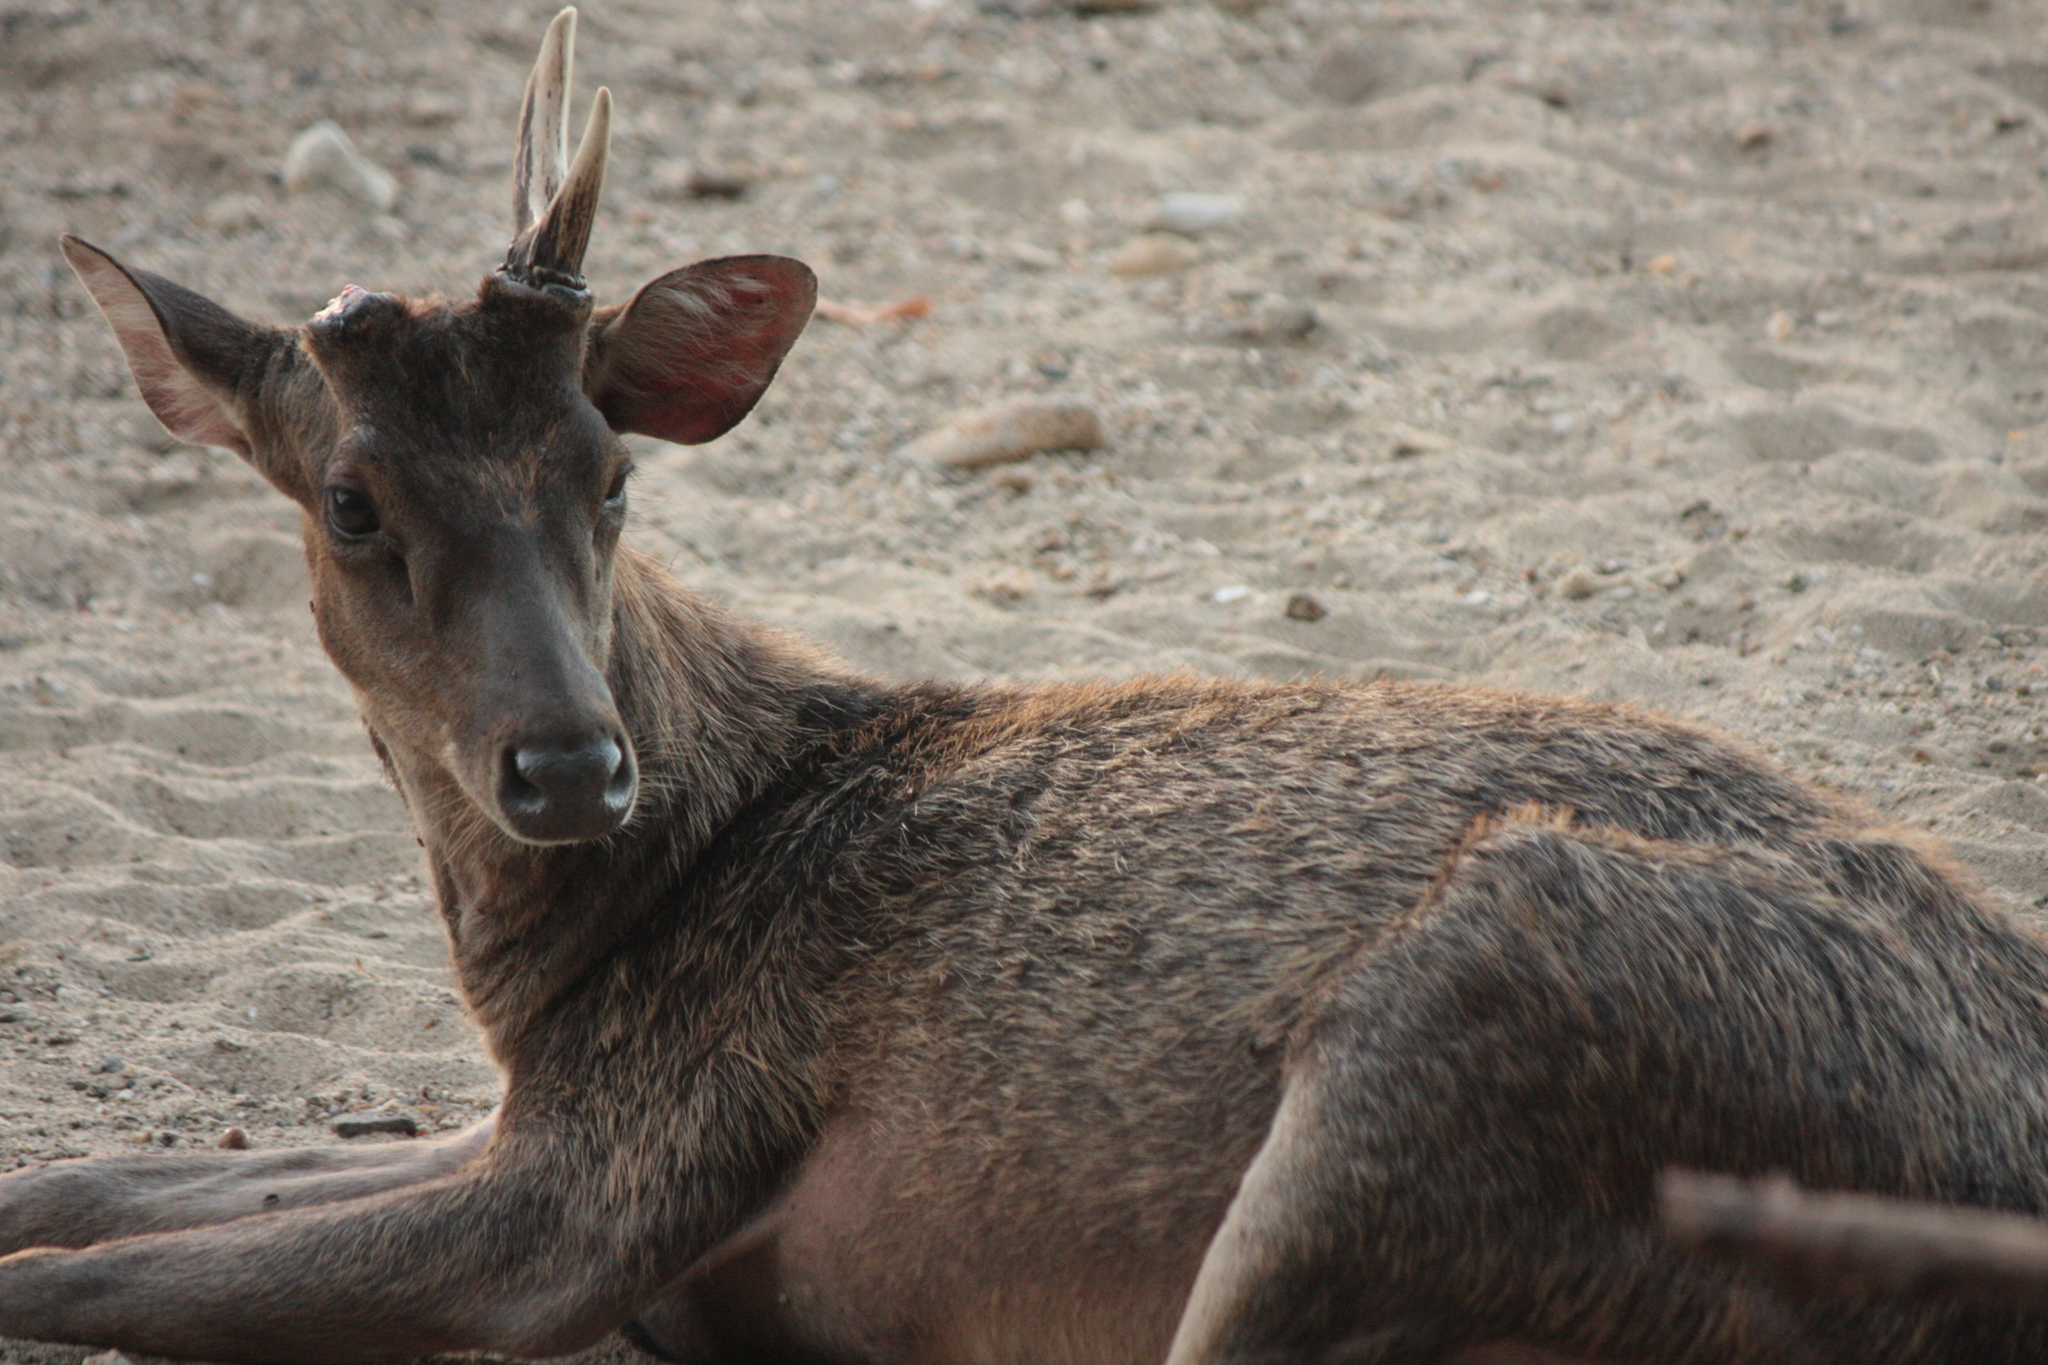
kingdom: Animalia
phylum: Chordata
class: Mammalia
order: Artiodactyla
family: Cervidae
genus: Rusa
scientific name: Rusa timorensis
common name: Javan rusa
